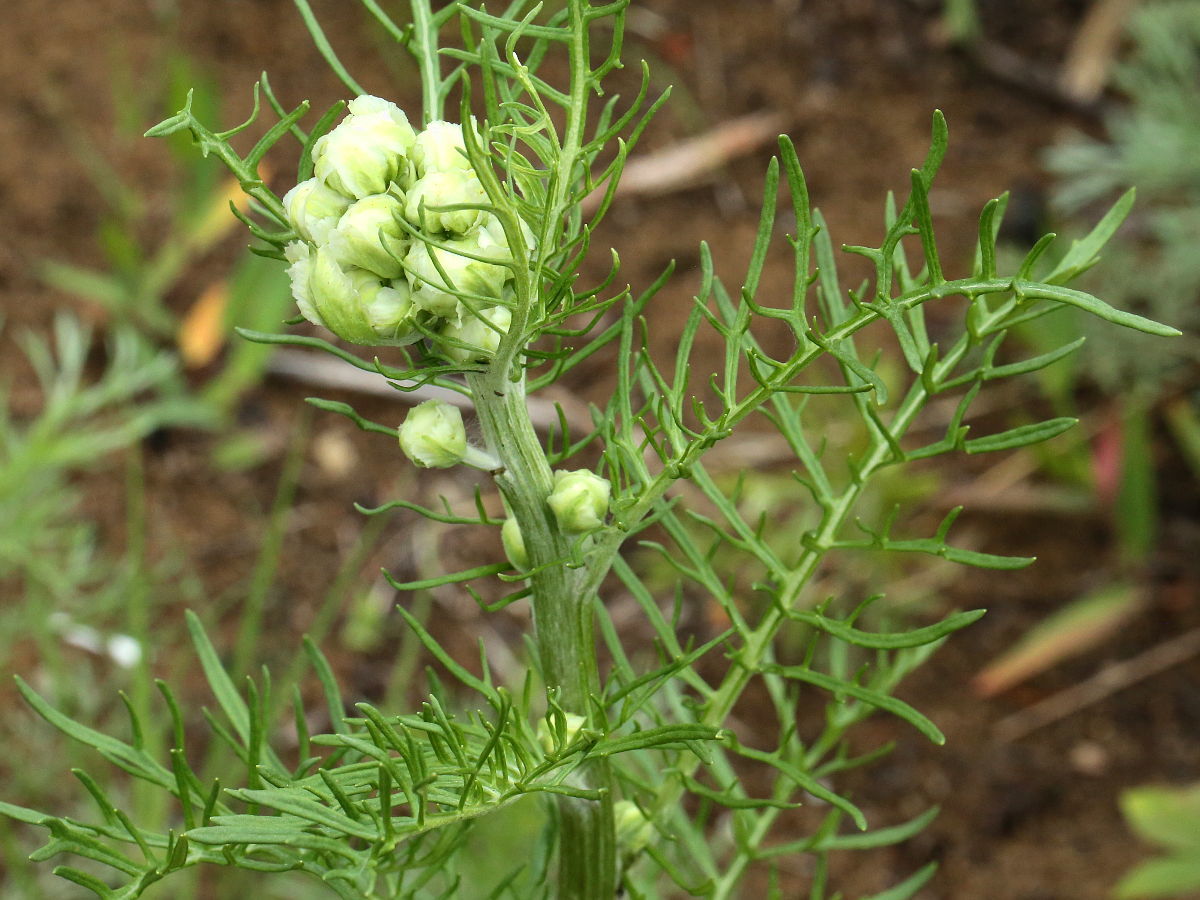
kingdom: Plantae
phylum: Tracheophyta
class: Magnoliopsida
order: Asterales
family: Asteraceae
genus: Hymenopappus
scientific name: Hymenopappus scabiosaeus
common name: Carolina woollywhite
